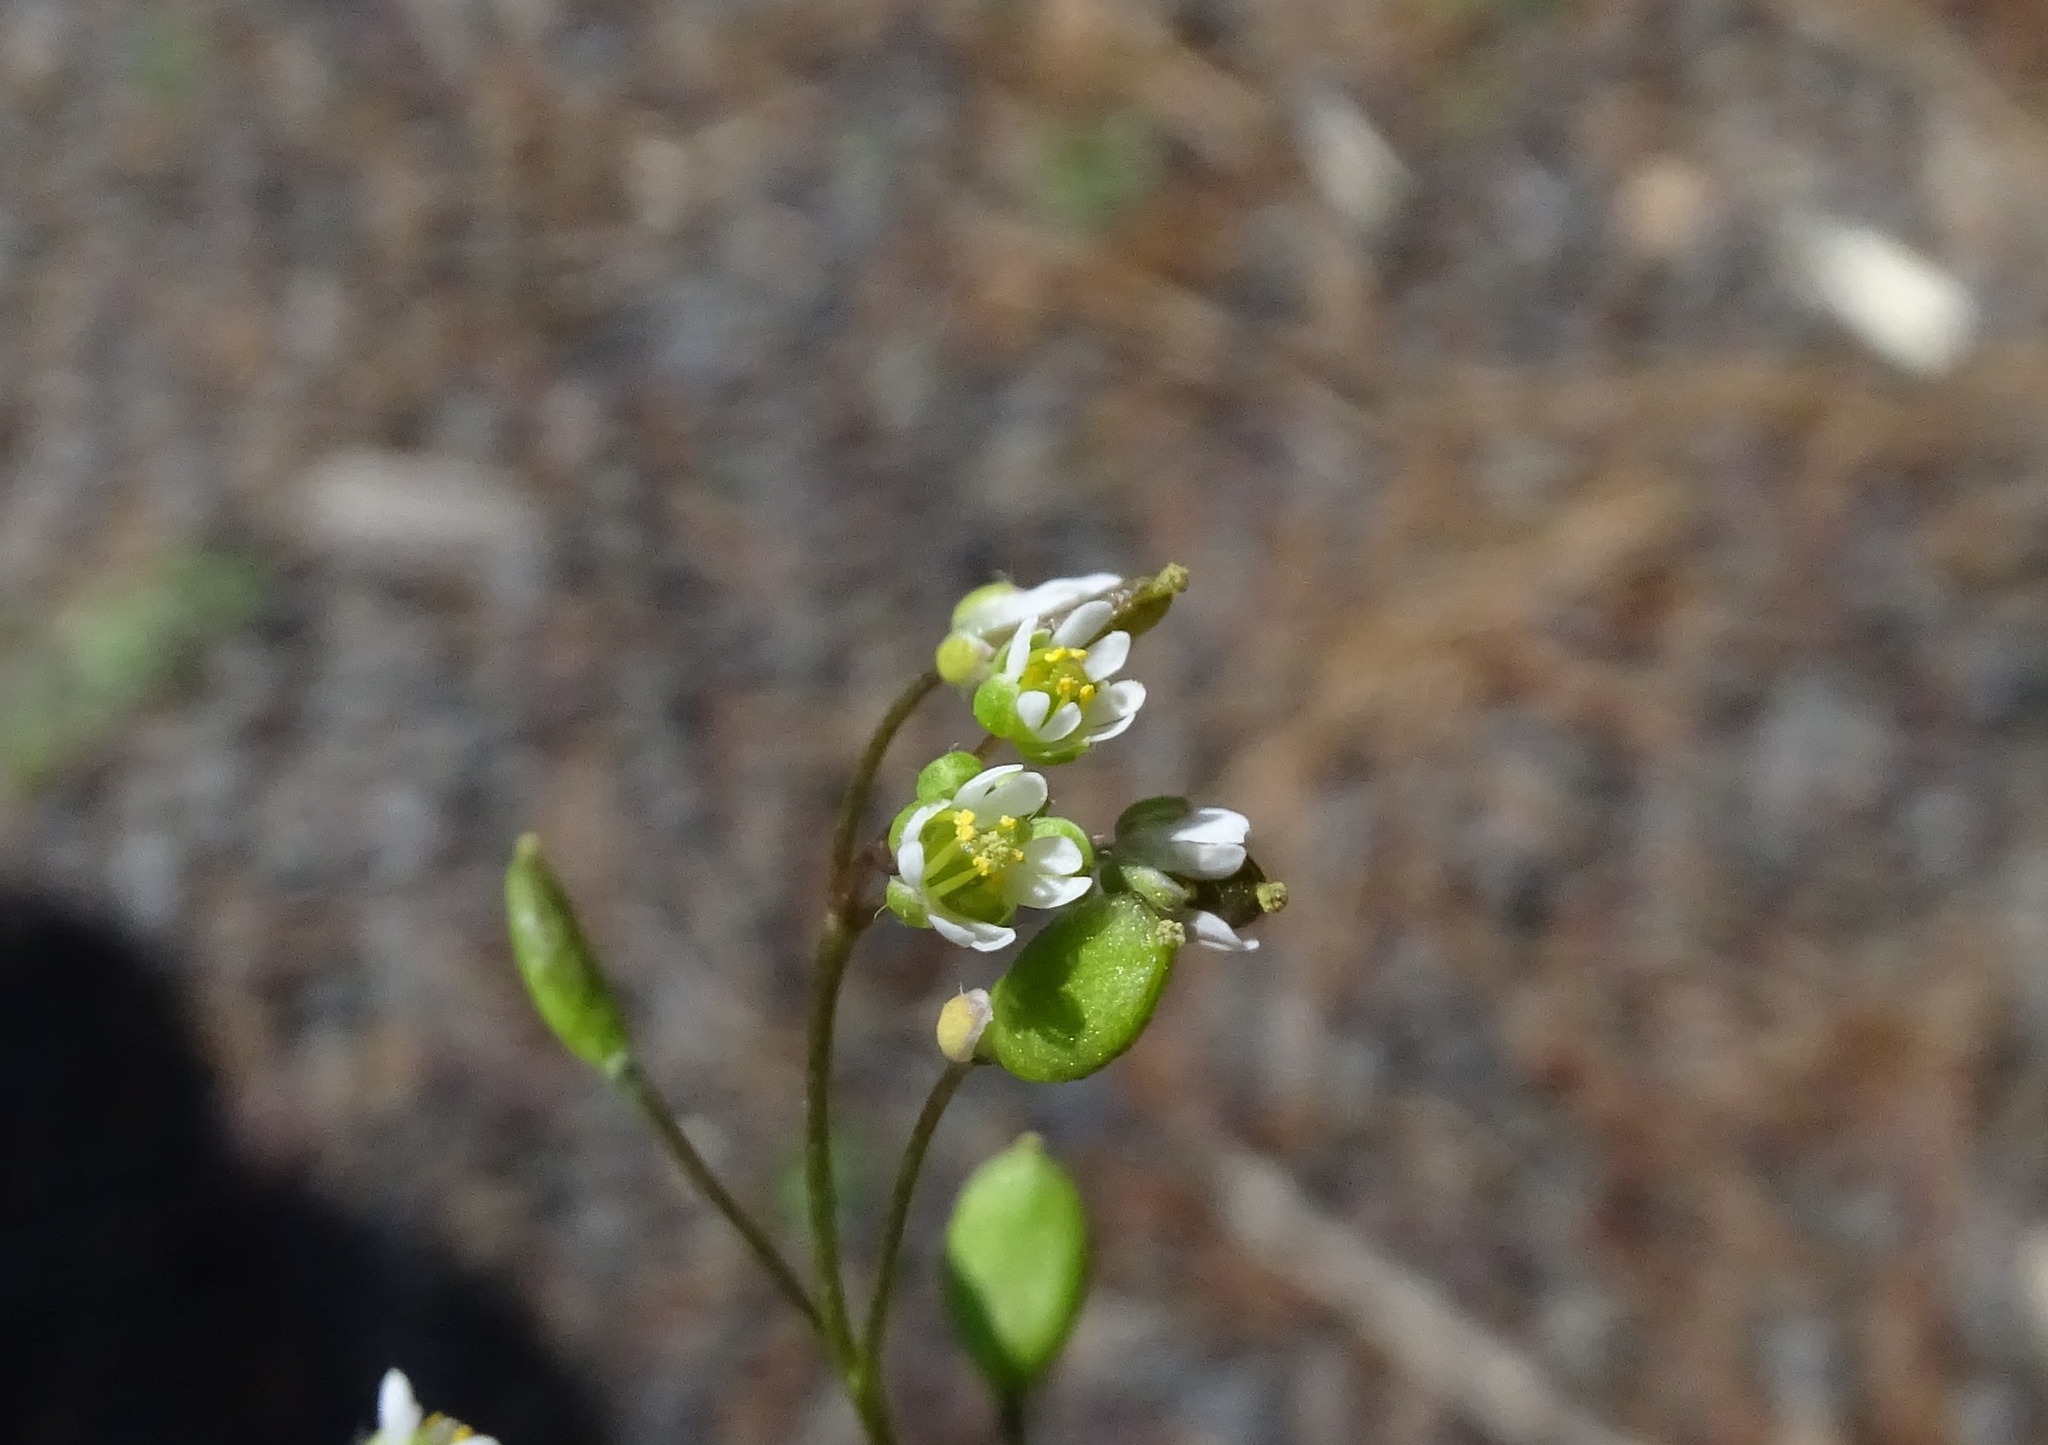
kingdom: Plantae
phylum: Tracheophyta
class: Magnoliopsida
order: Brassicales
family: Brassicaceae
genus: Draba
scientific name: Draba verna
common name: Spring draba
